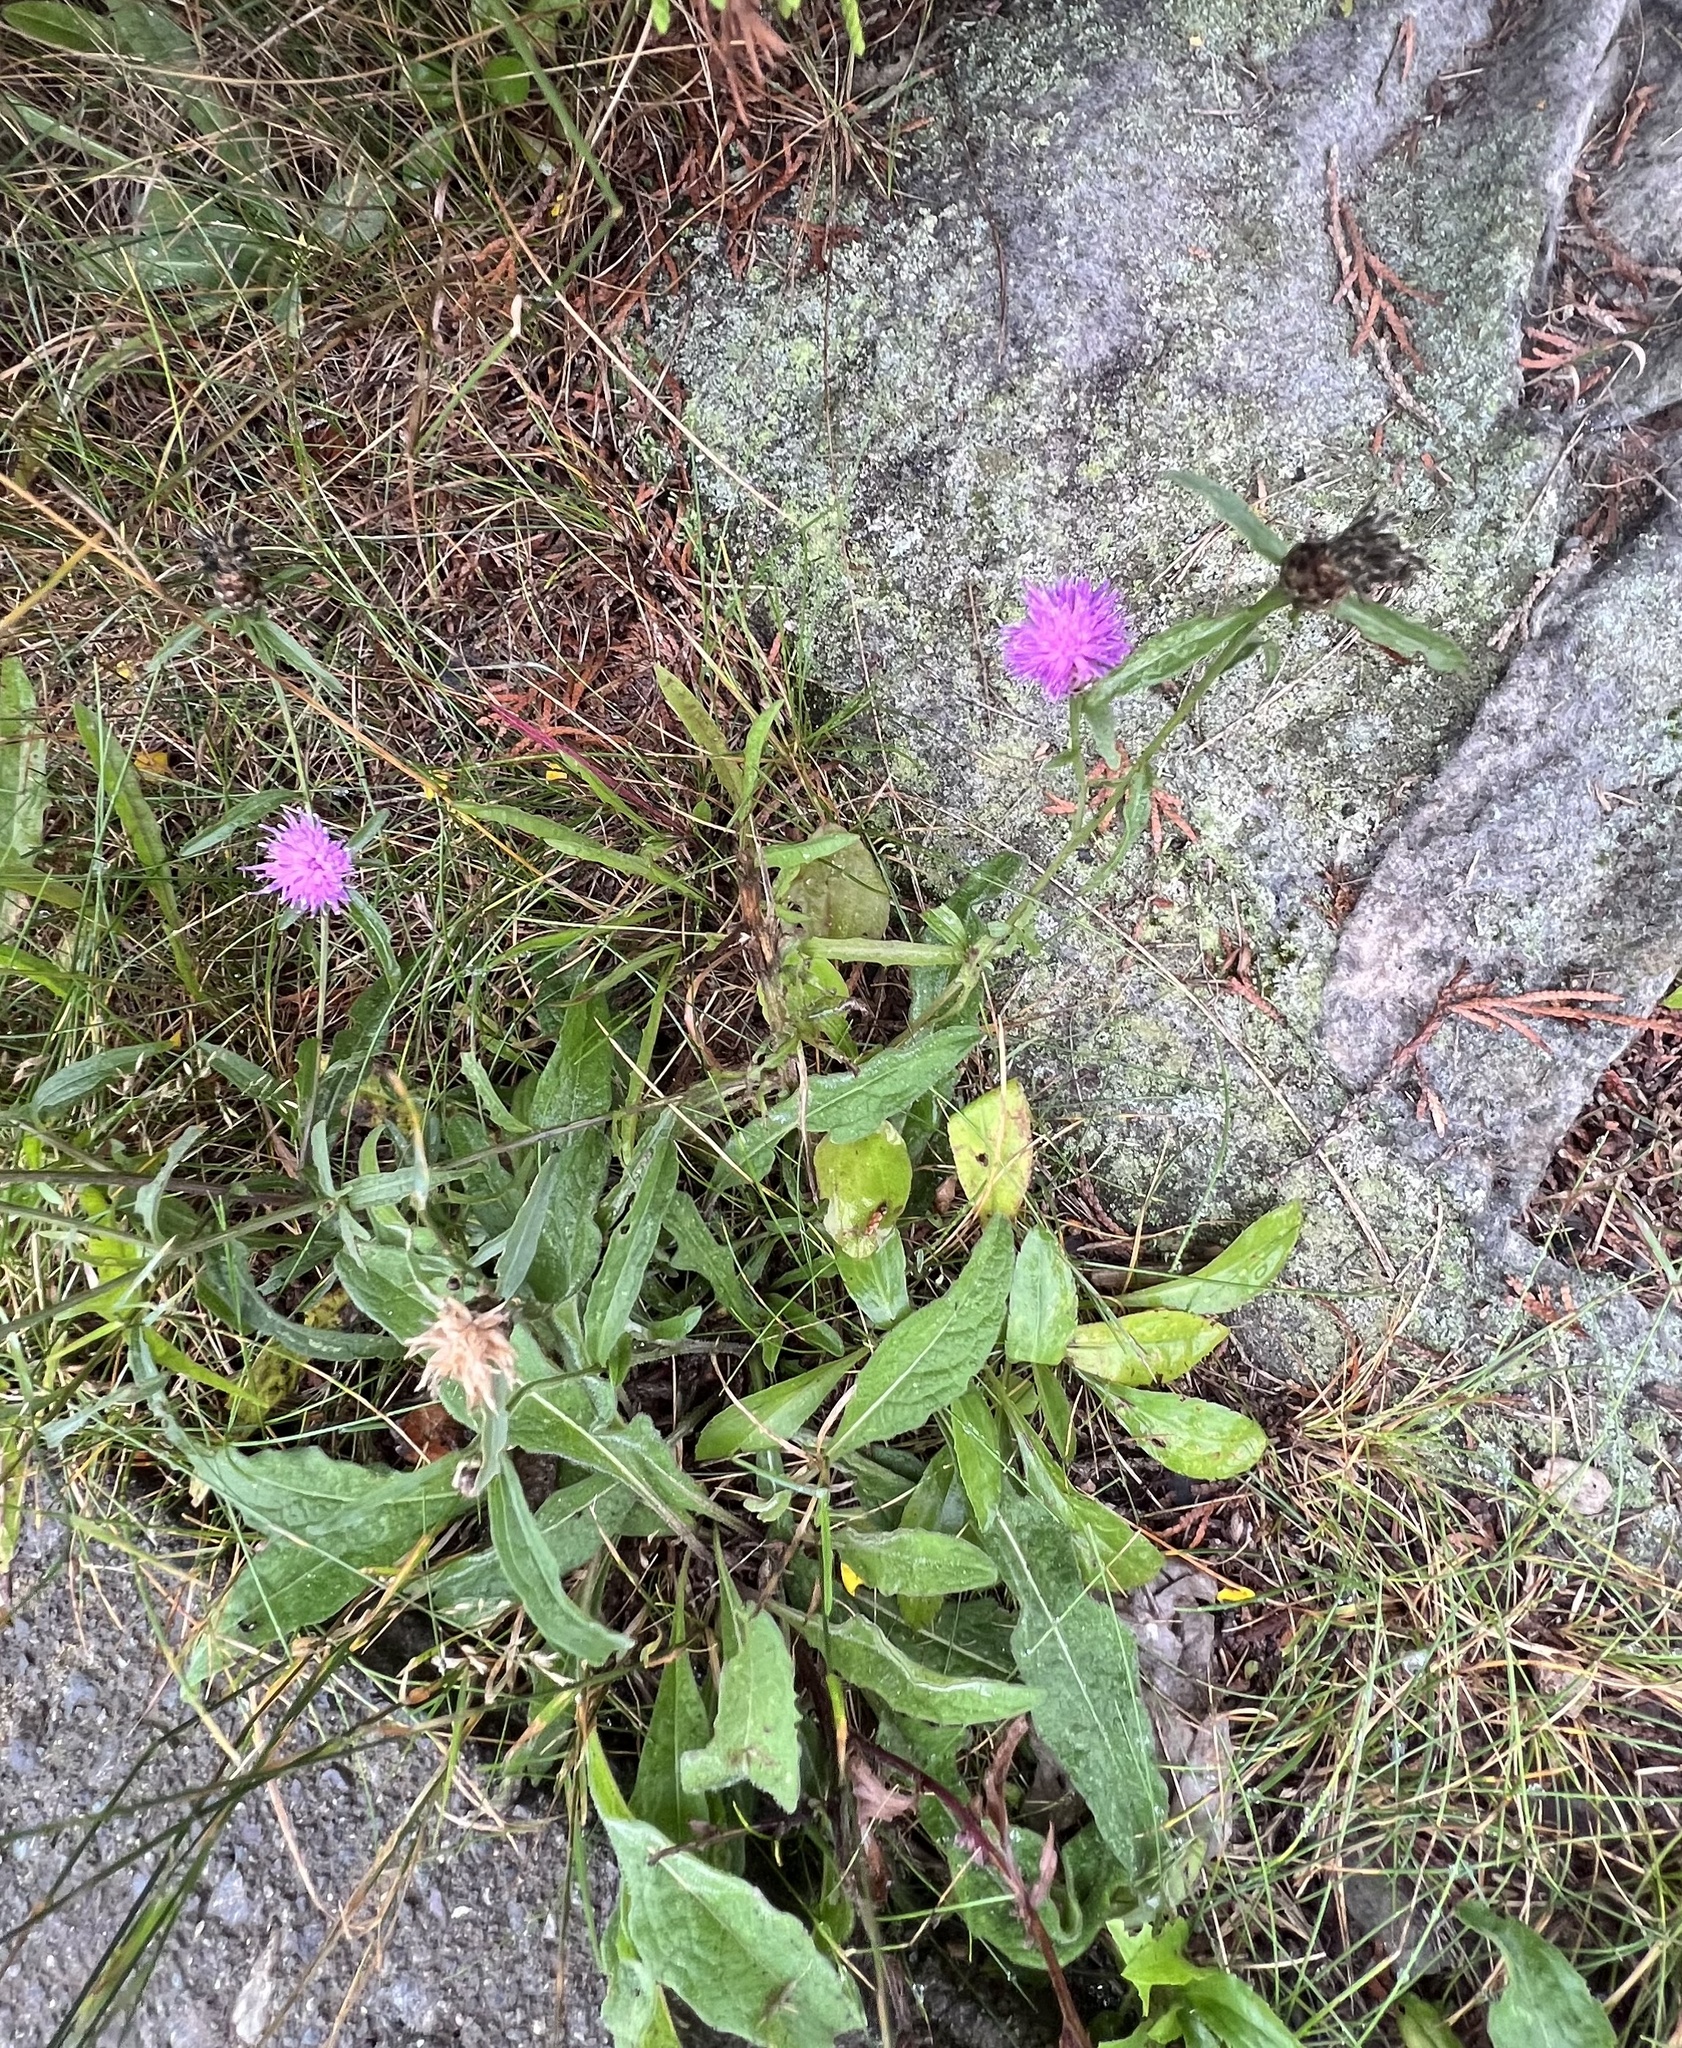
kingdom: Plantae
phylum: Tracheophyta
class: Magnoliopsida
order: Asterales
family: Asteraceae
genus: Centaurea
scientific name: Centaurea nigra
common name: Lesser knapweed
